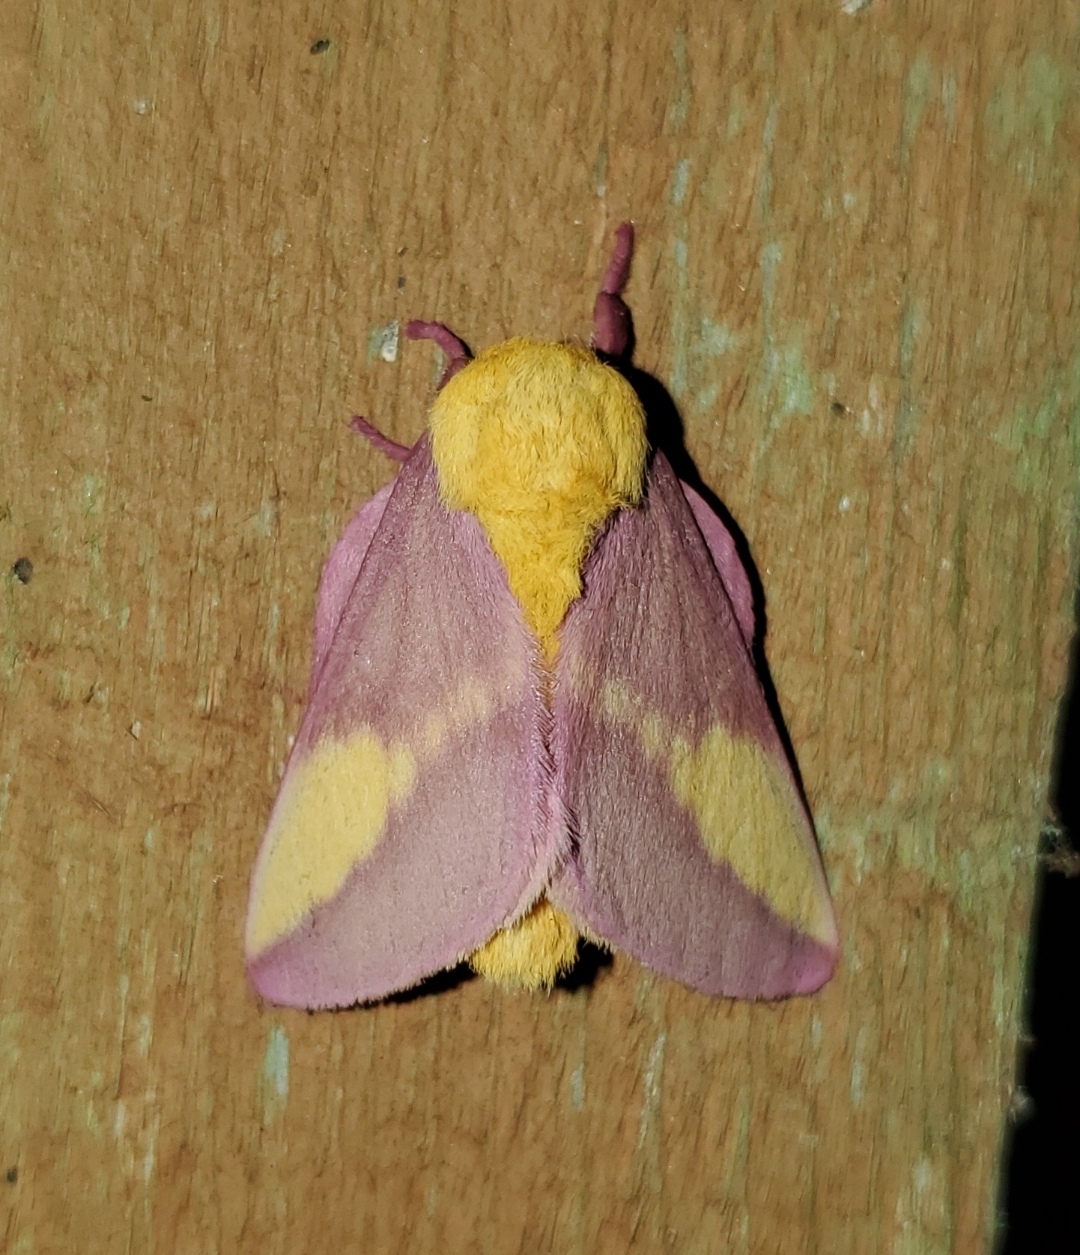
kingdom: Animalia
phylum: Arthropoda
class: Insecta
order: Lepidoptera
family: Saturniidae
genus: Dryocampa
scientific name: Dryocampa rubicunda
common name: Rosy maple moth
